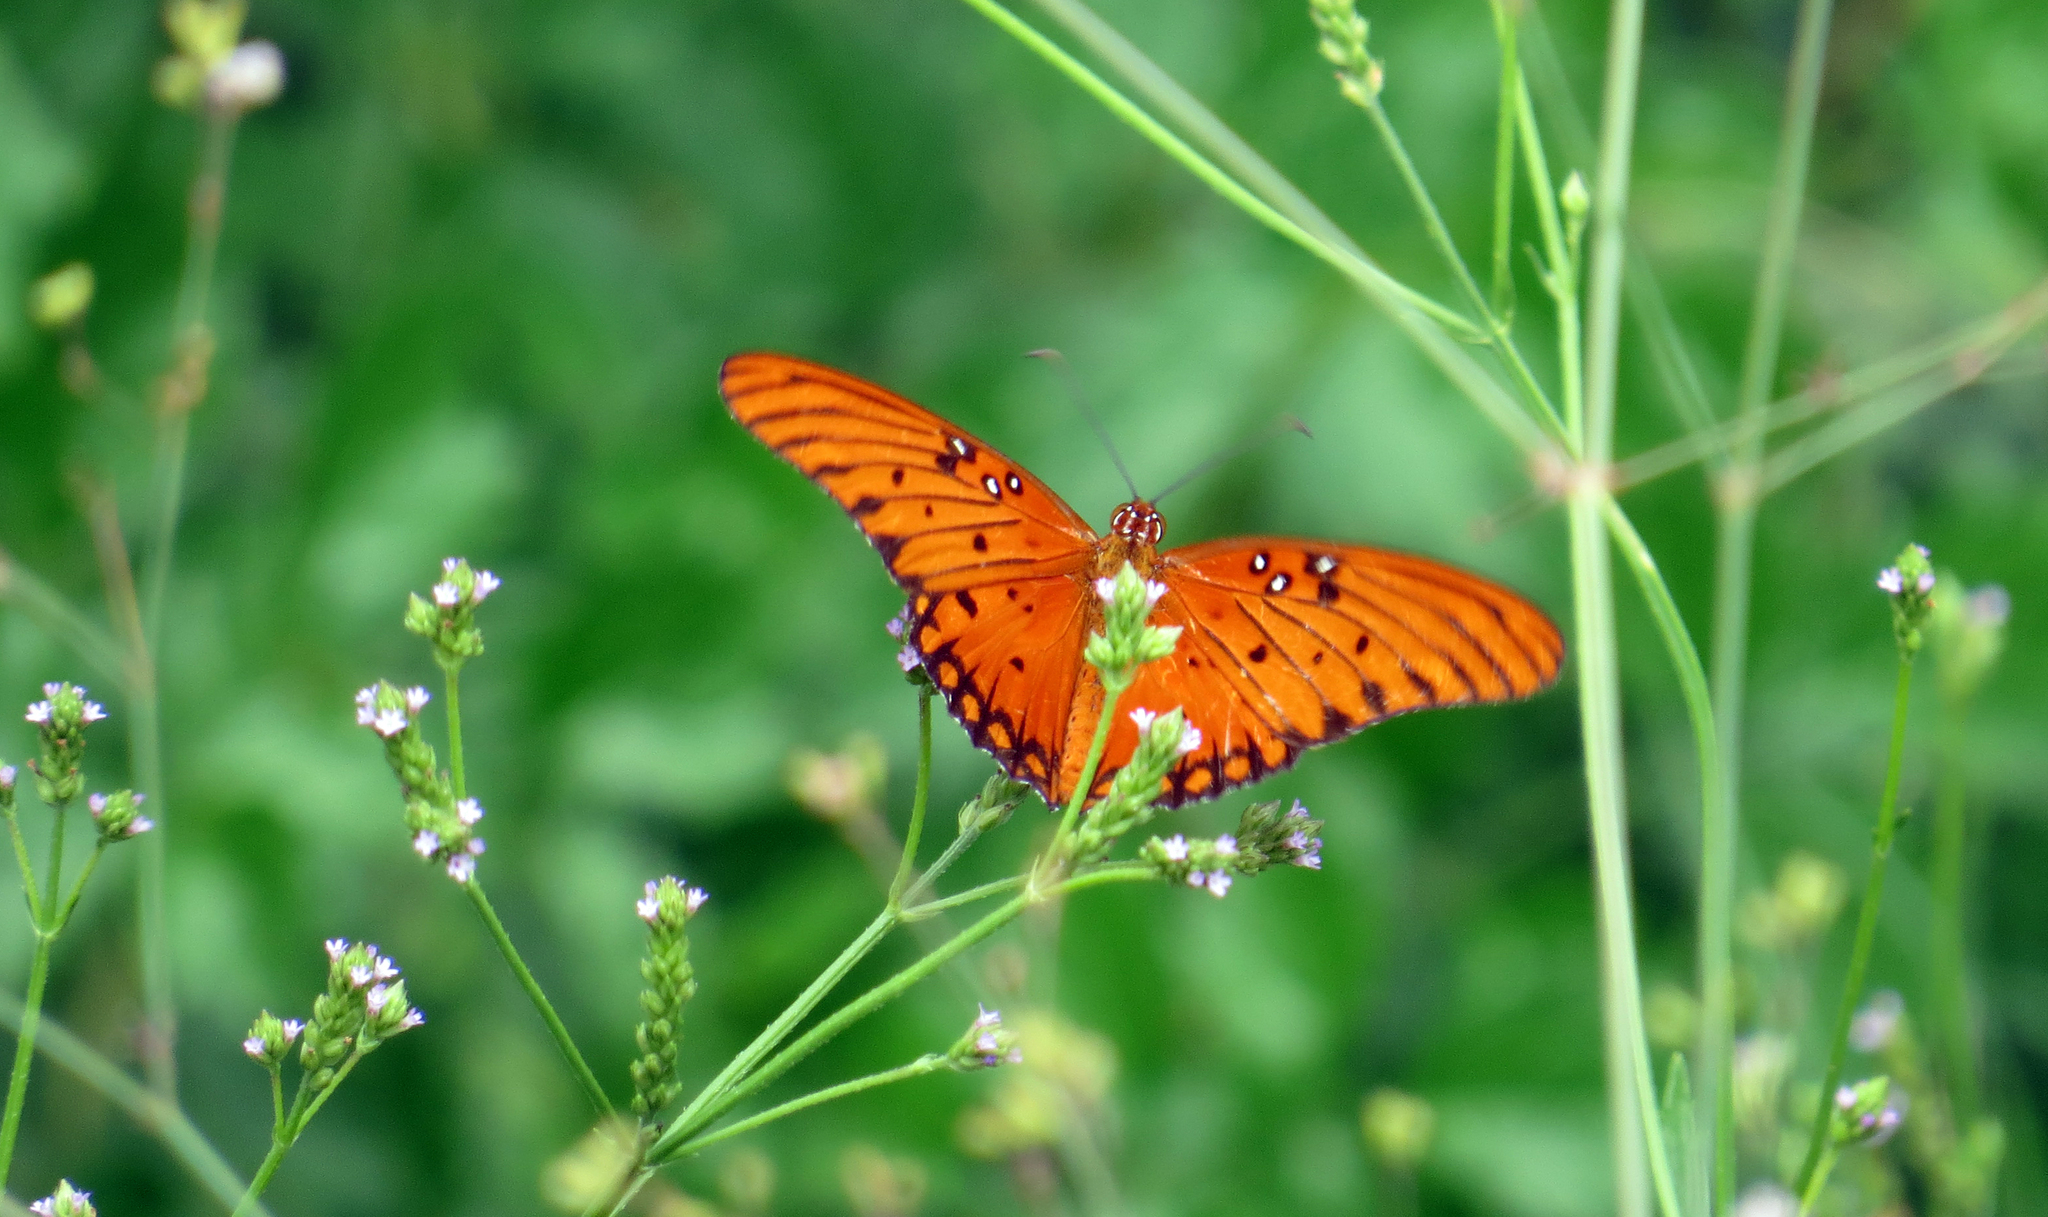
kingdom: Animalia
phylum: Arthropoda
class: Insecta
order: Lepidoptera
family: Nymphalidae
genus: Dione
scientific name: Dione vanillae
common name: Gulf fritillary
